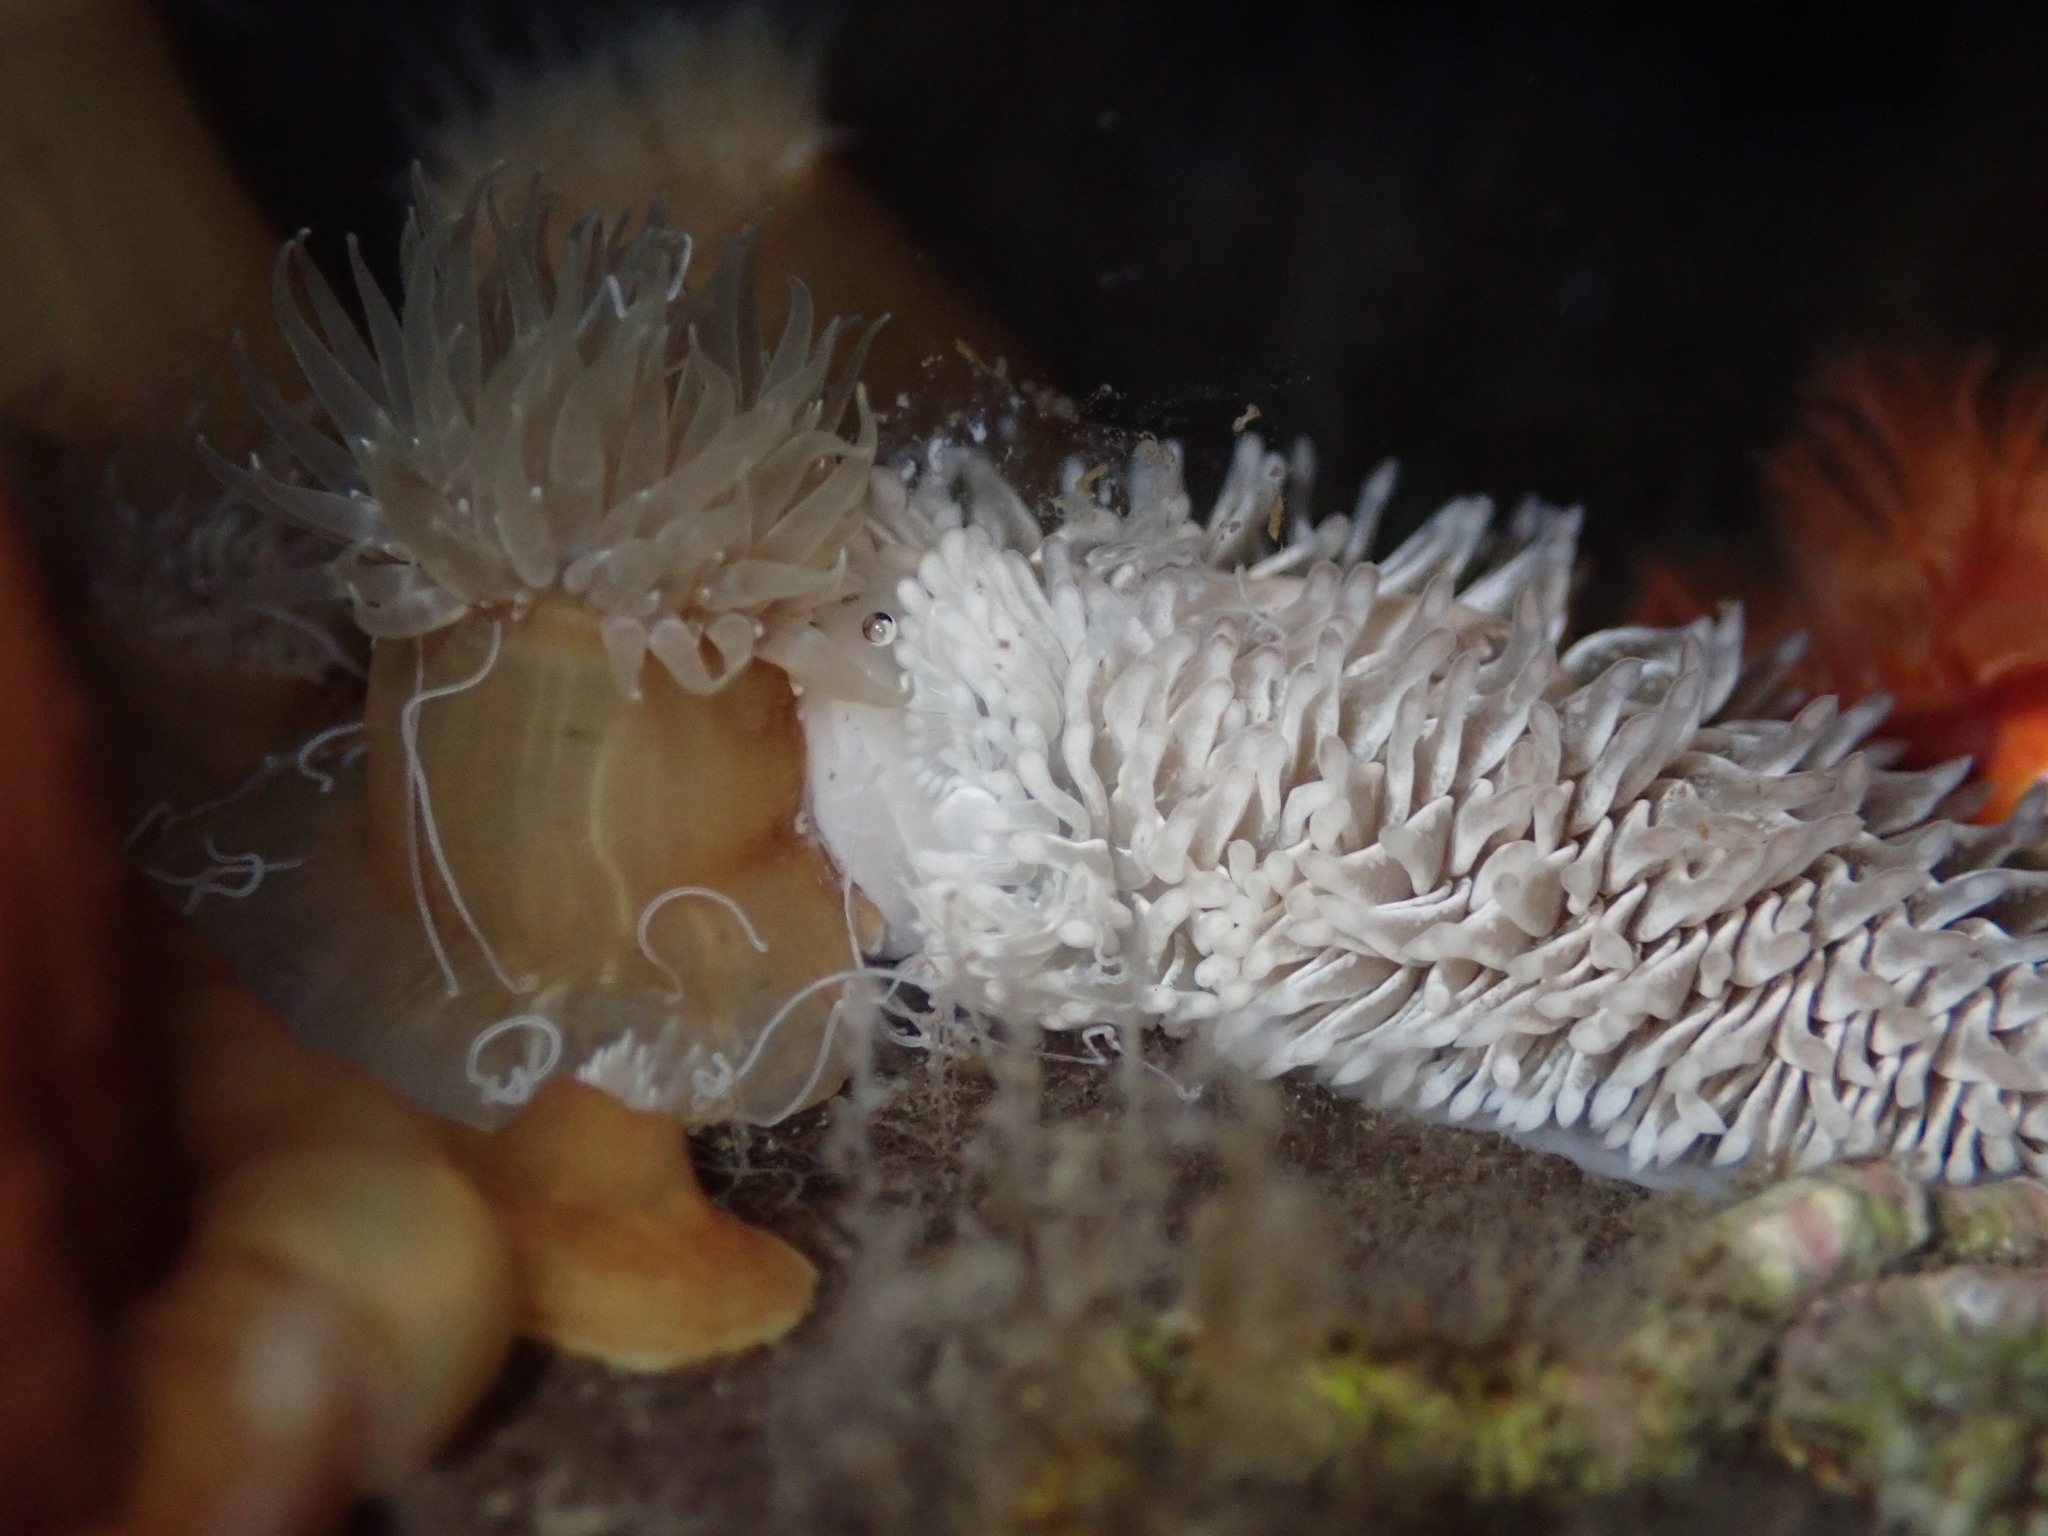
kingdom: Animalia
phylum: Mollusca
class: Gastropoda
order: Nudibranchia
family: Aeolidiidae
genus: Aeolidia
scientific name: Aeolidia loui
